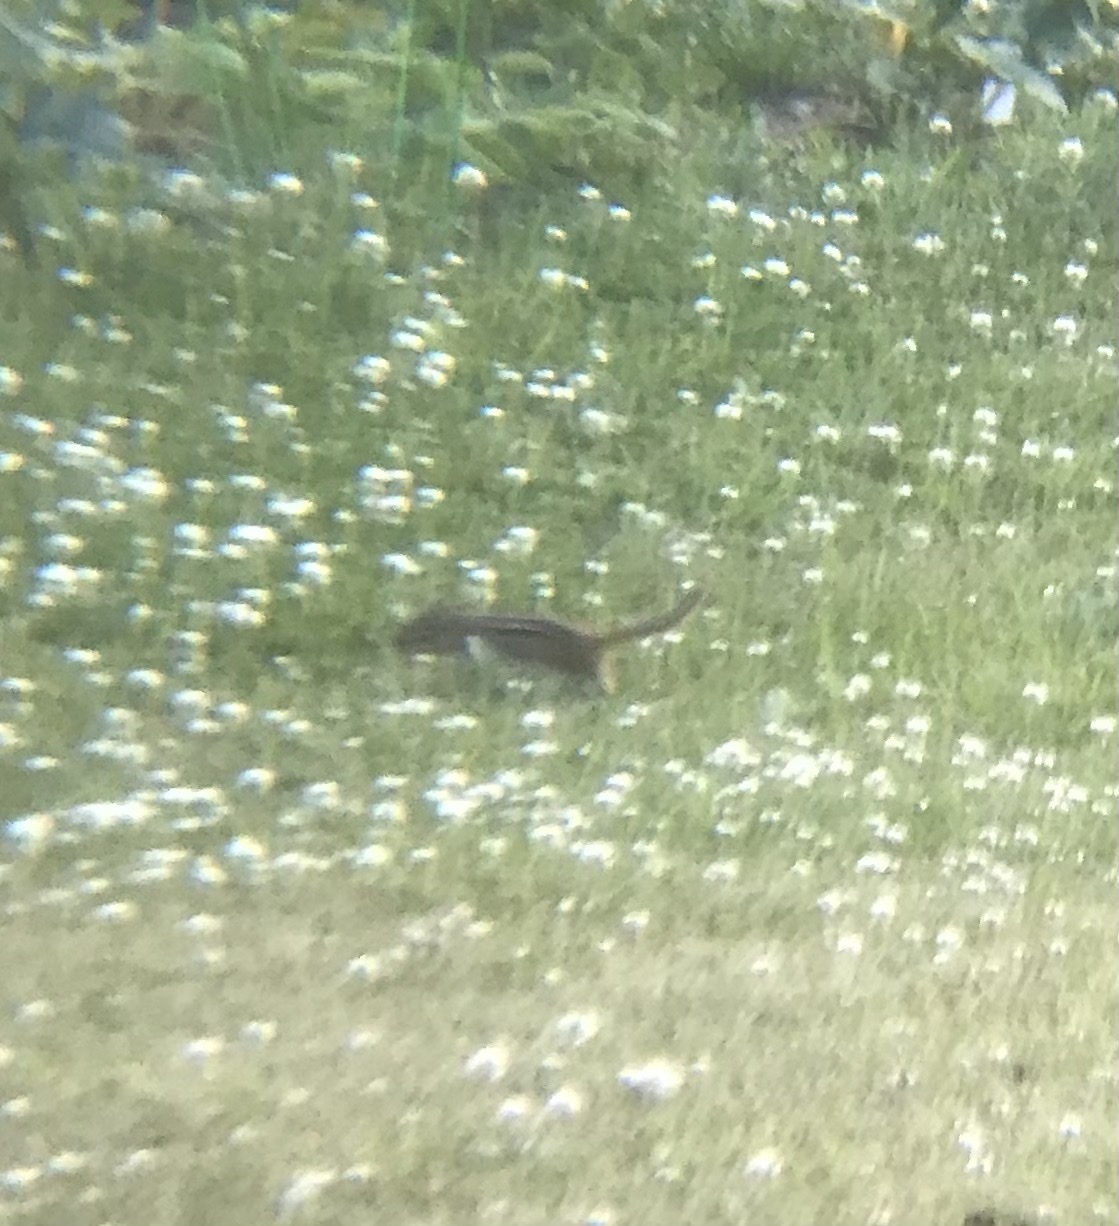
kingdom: Animalia
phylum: Chordata
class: Mammalia
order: Rodentia
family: Sciuridae
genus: Tamias
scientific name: Tamias striatus
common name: Eastern chipmunk
